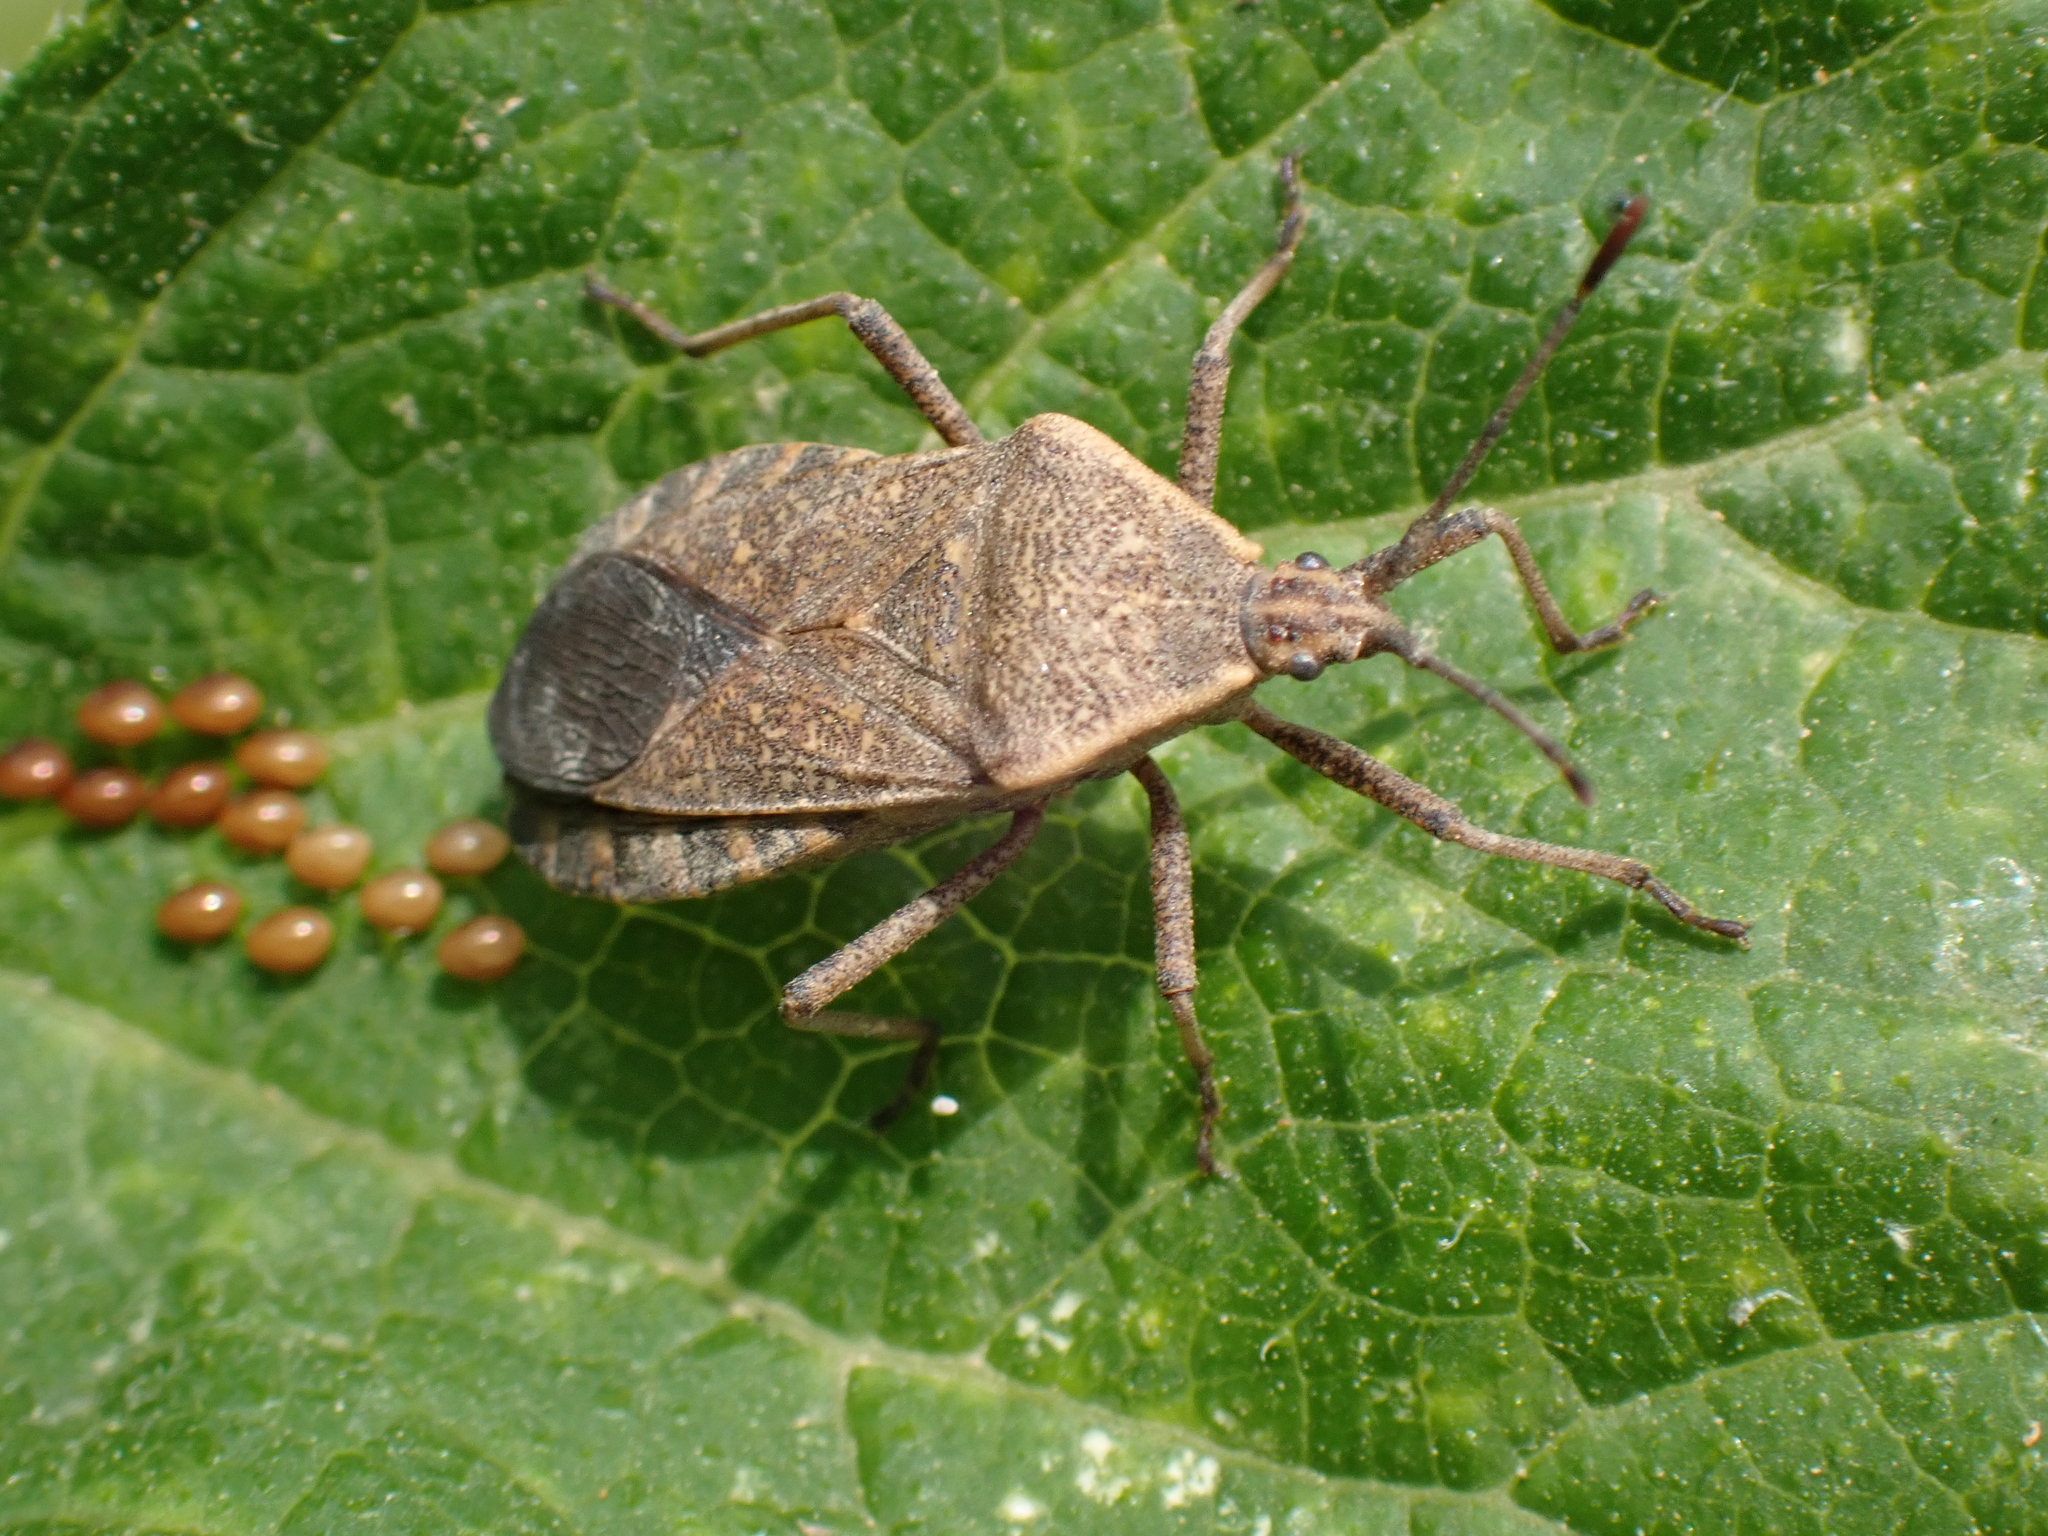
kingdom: Animalia
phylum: Arthropoda
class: Insecta
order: Hemiptera
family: Coreidae
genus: Anasa
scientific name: Anasa tristis
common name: Squash bug
